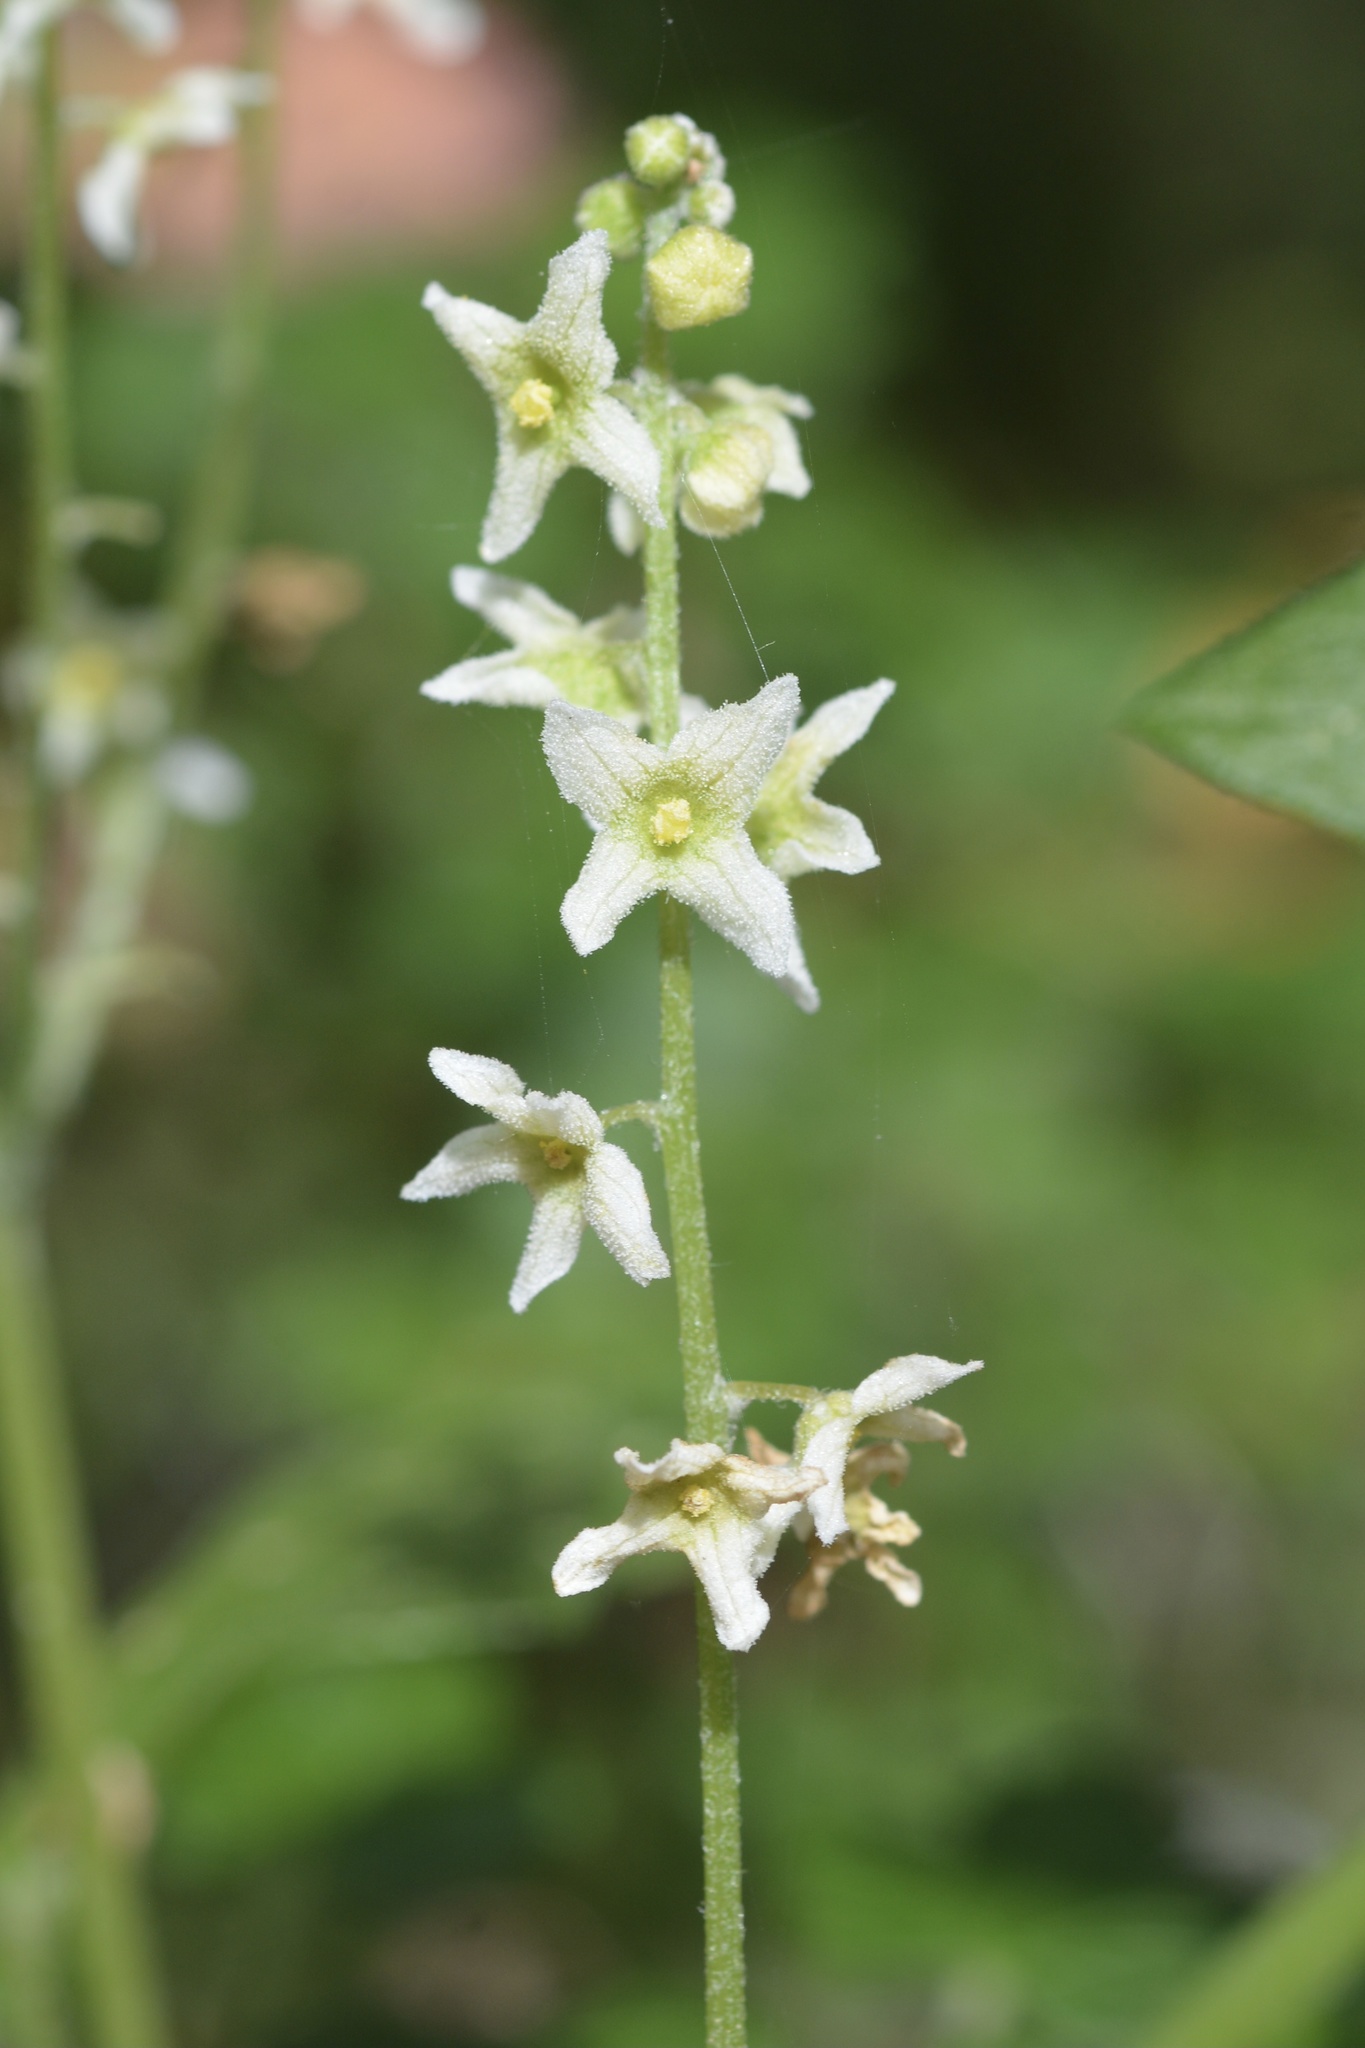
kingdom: Plantae
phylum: Tracheophyta
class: Magnoliopsida
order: Cucurbitales
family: Cucurbitaceae
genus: Marah
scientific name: Marah fabacea
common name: California manroot
